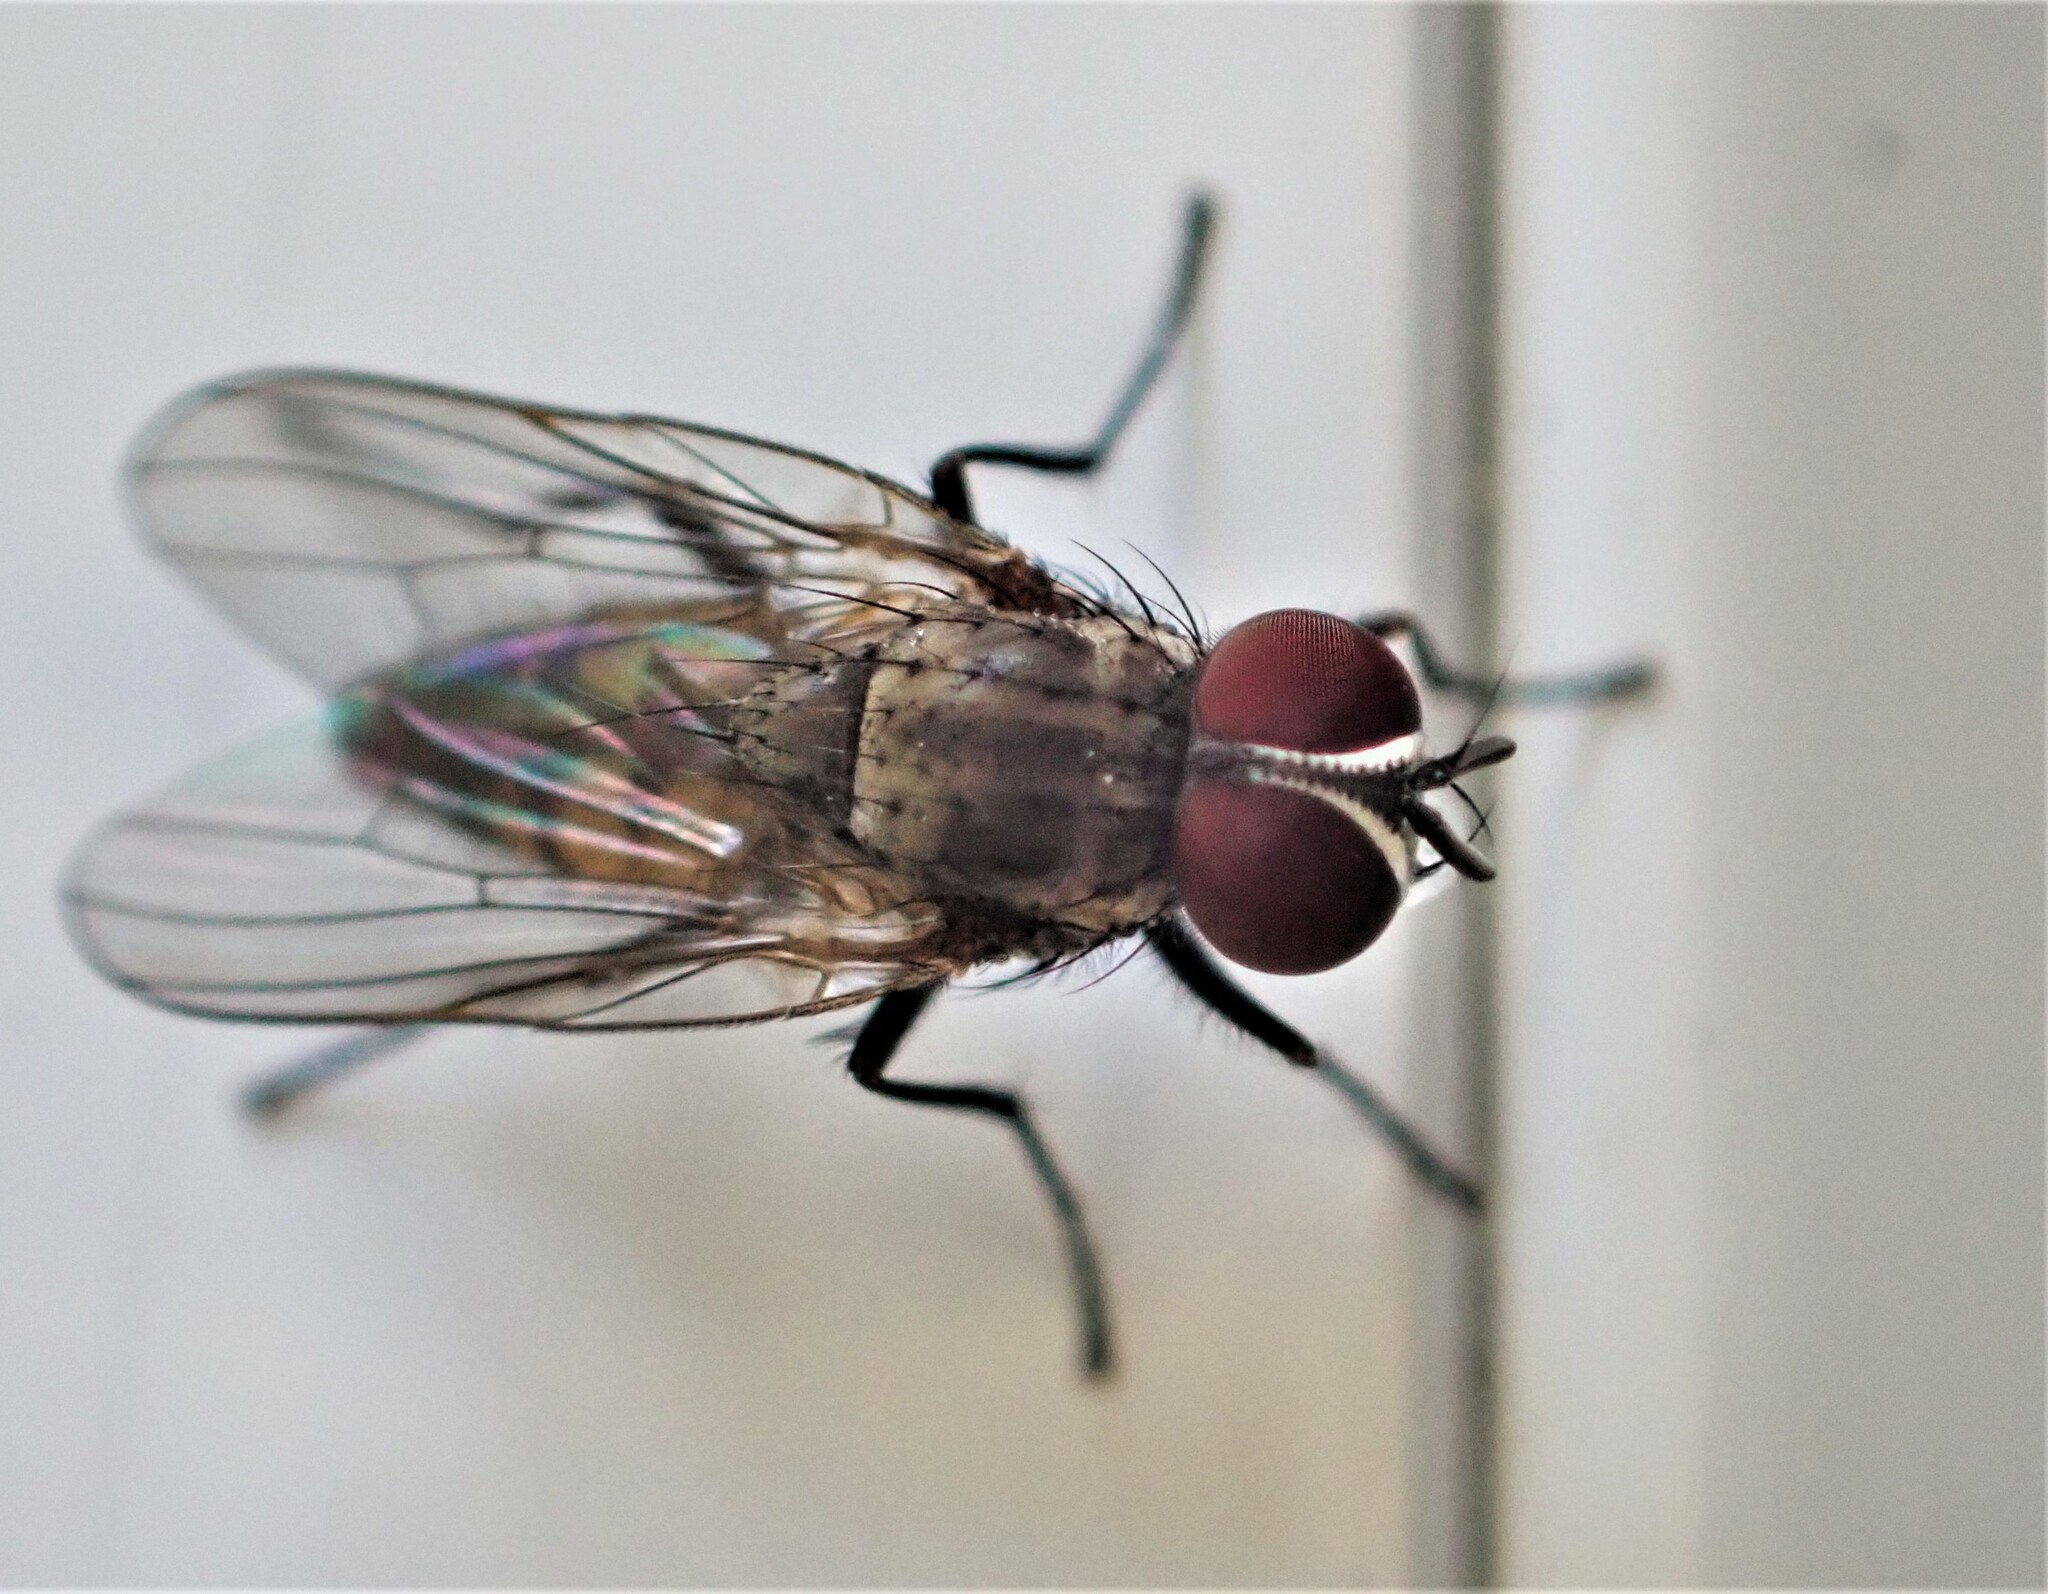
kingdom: Animalia
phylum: Arthropoda
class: Insecta
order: Diptera
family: Fanniidae
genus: Fannia
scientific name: Fannia canicularis
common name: Little house fly
